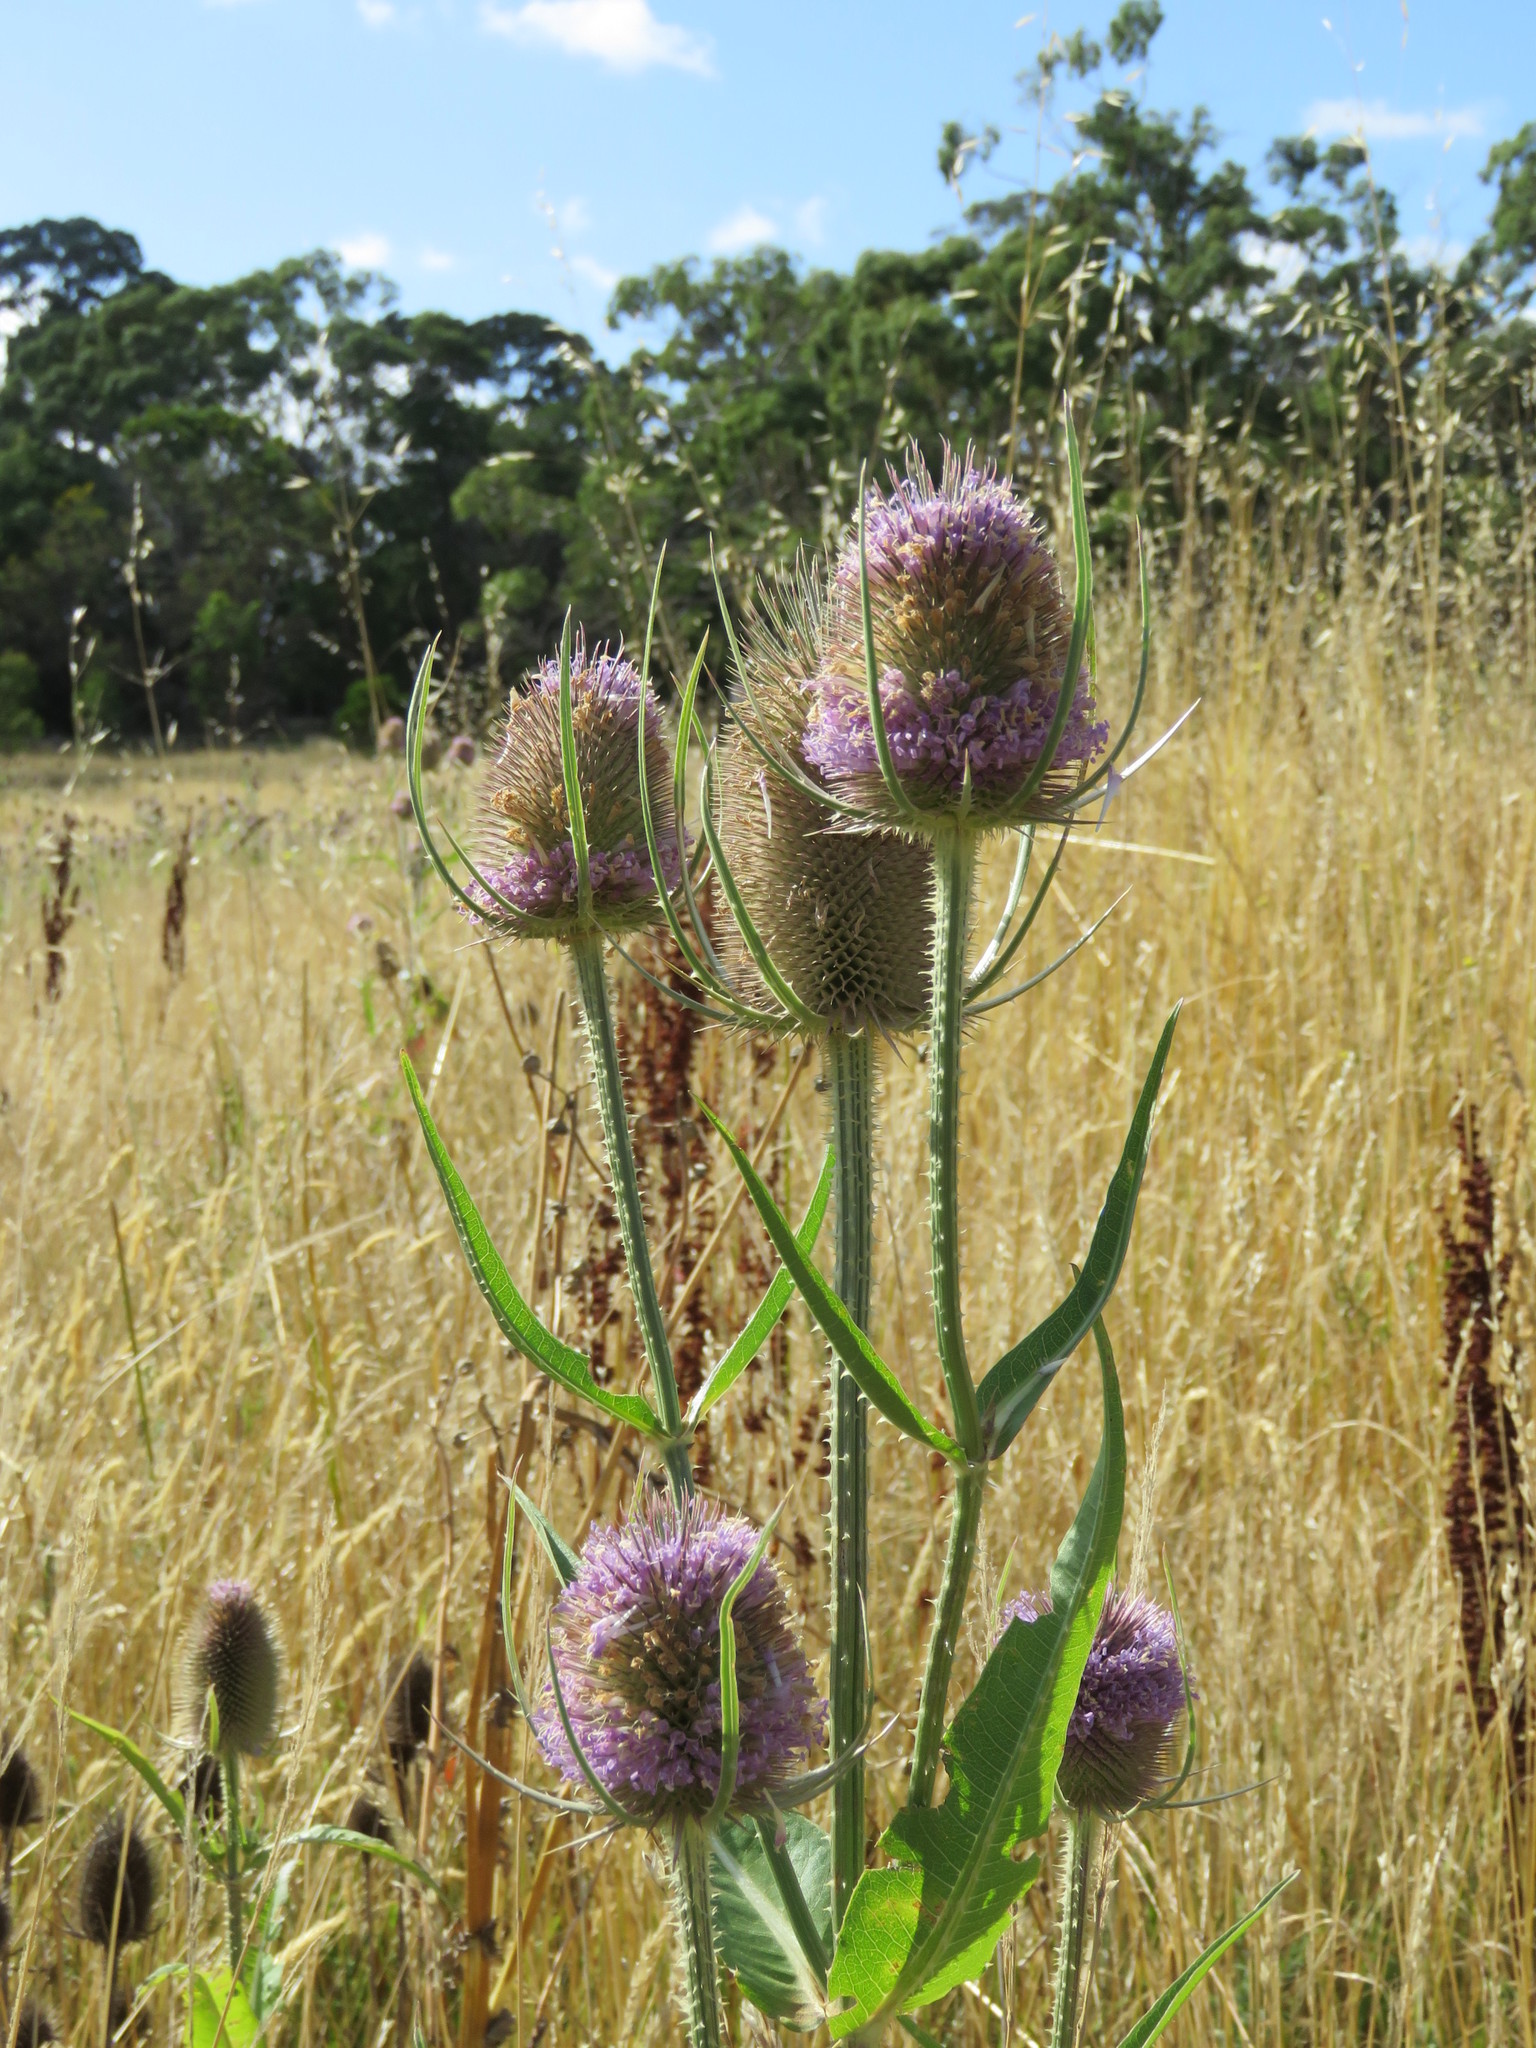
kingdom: Plantae
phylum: Tracheophyta
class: Magnoliopsida
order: Dipsacales
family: Caprifoliaceae
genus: Dipsacus
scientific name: Dipsacus fullonum
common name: Teasel
